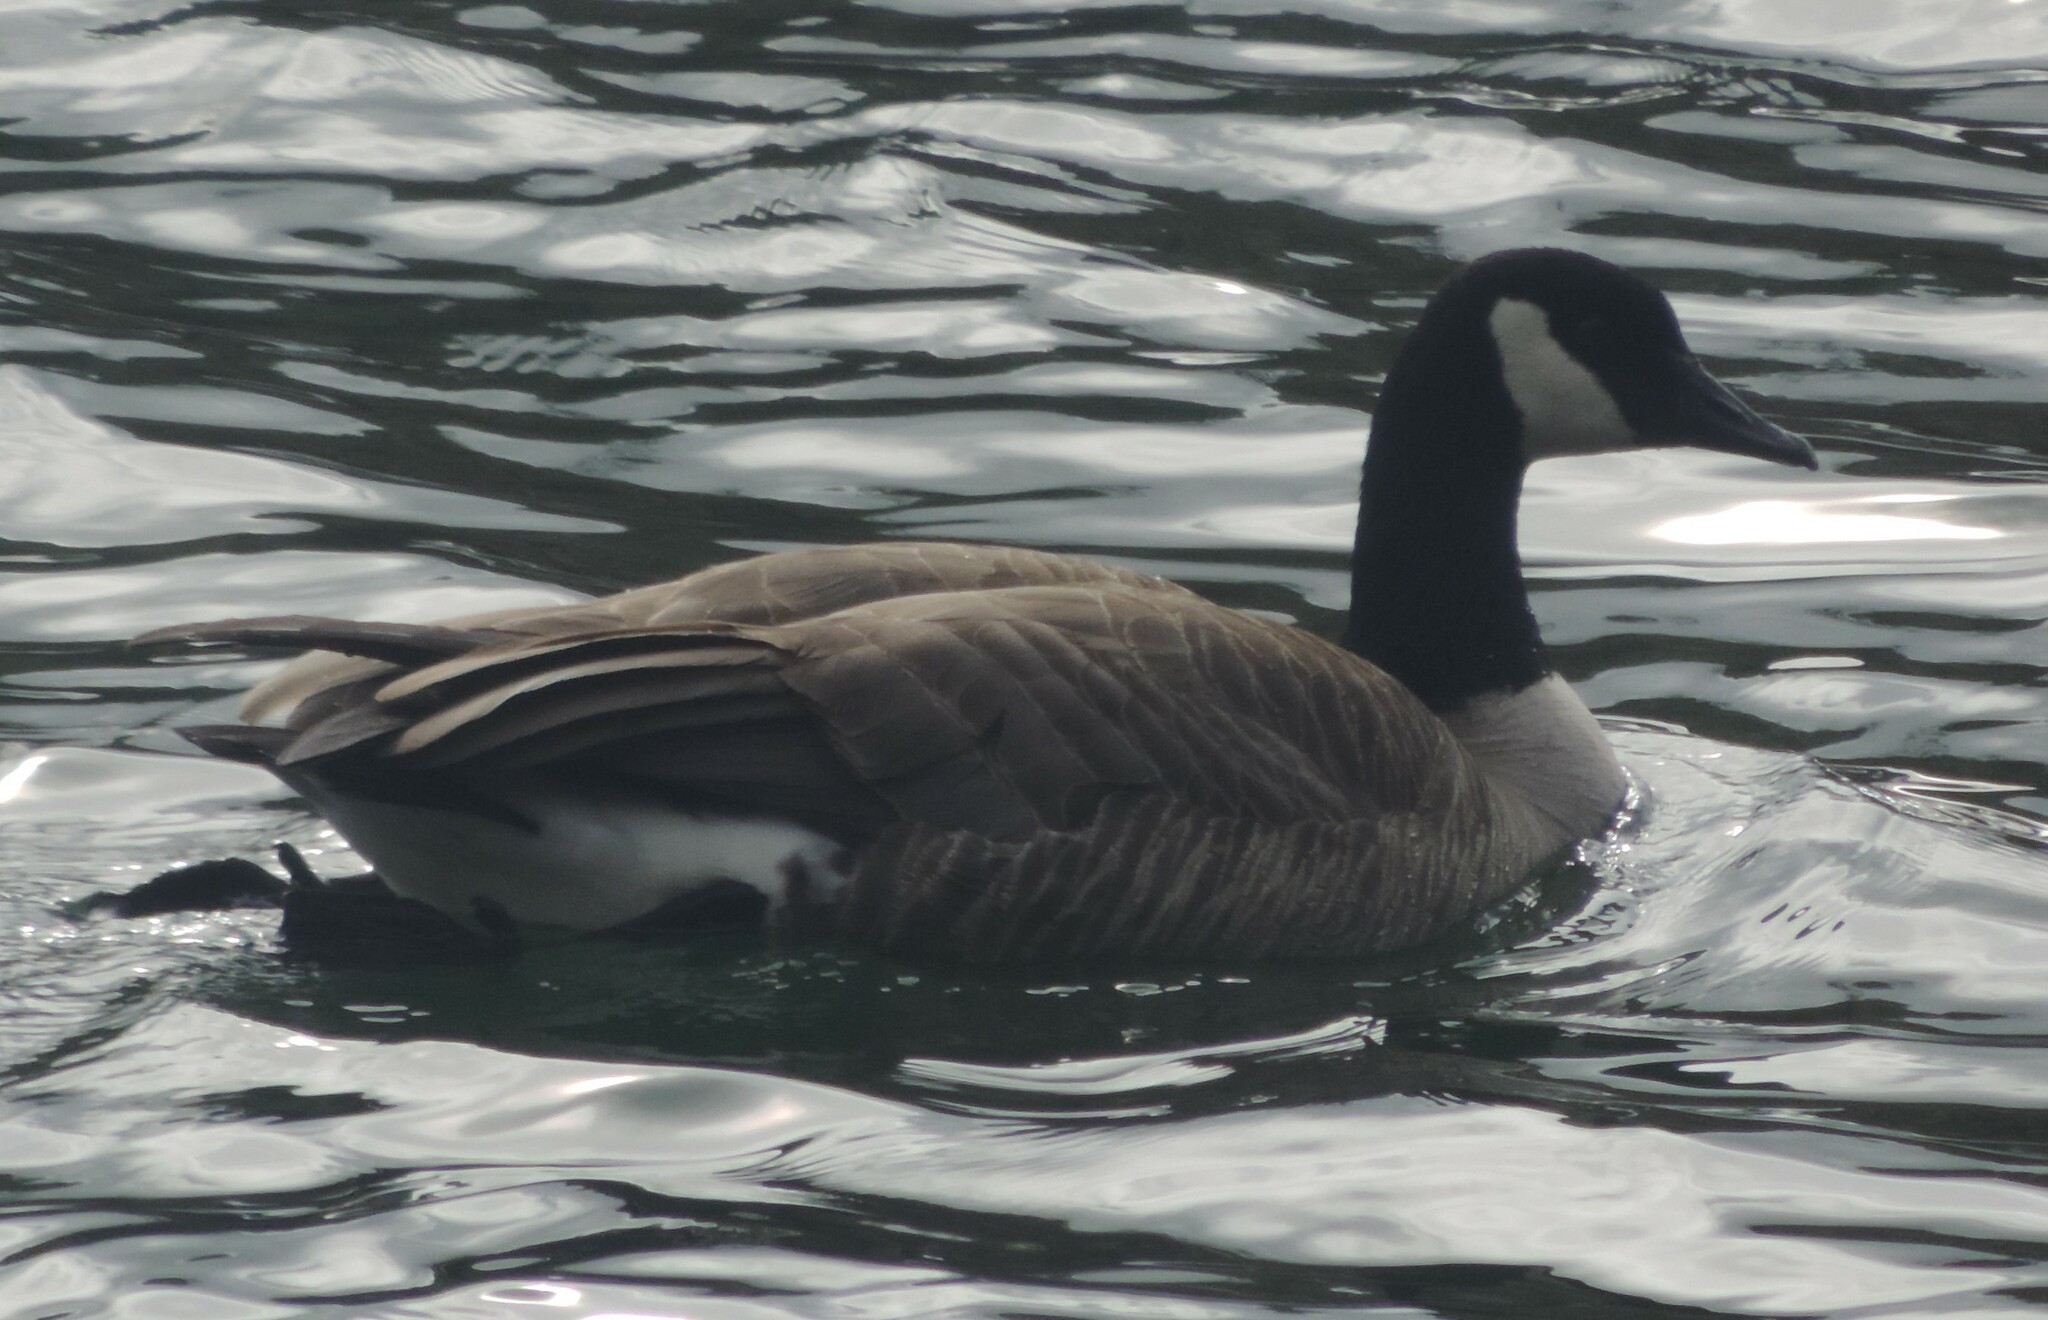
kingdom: Animalia
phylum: Chordata
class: Aves
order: Anseriformes
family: Anatidae
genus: Branta
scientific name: Branta canadensis
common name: Canada goose
